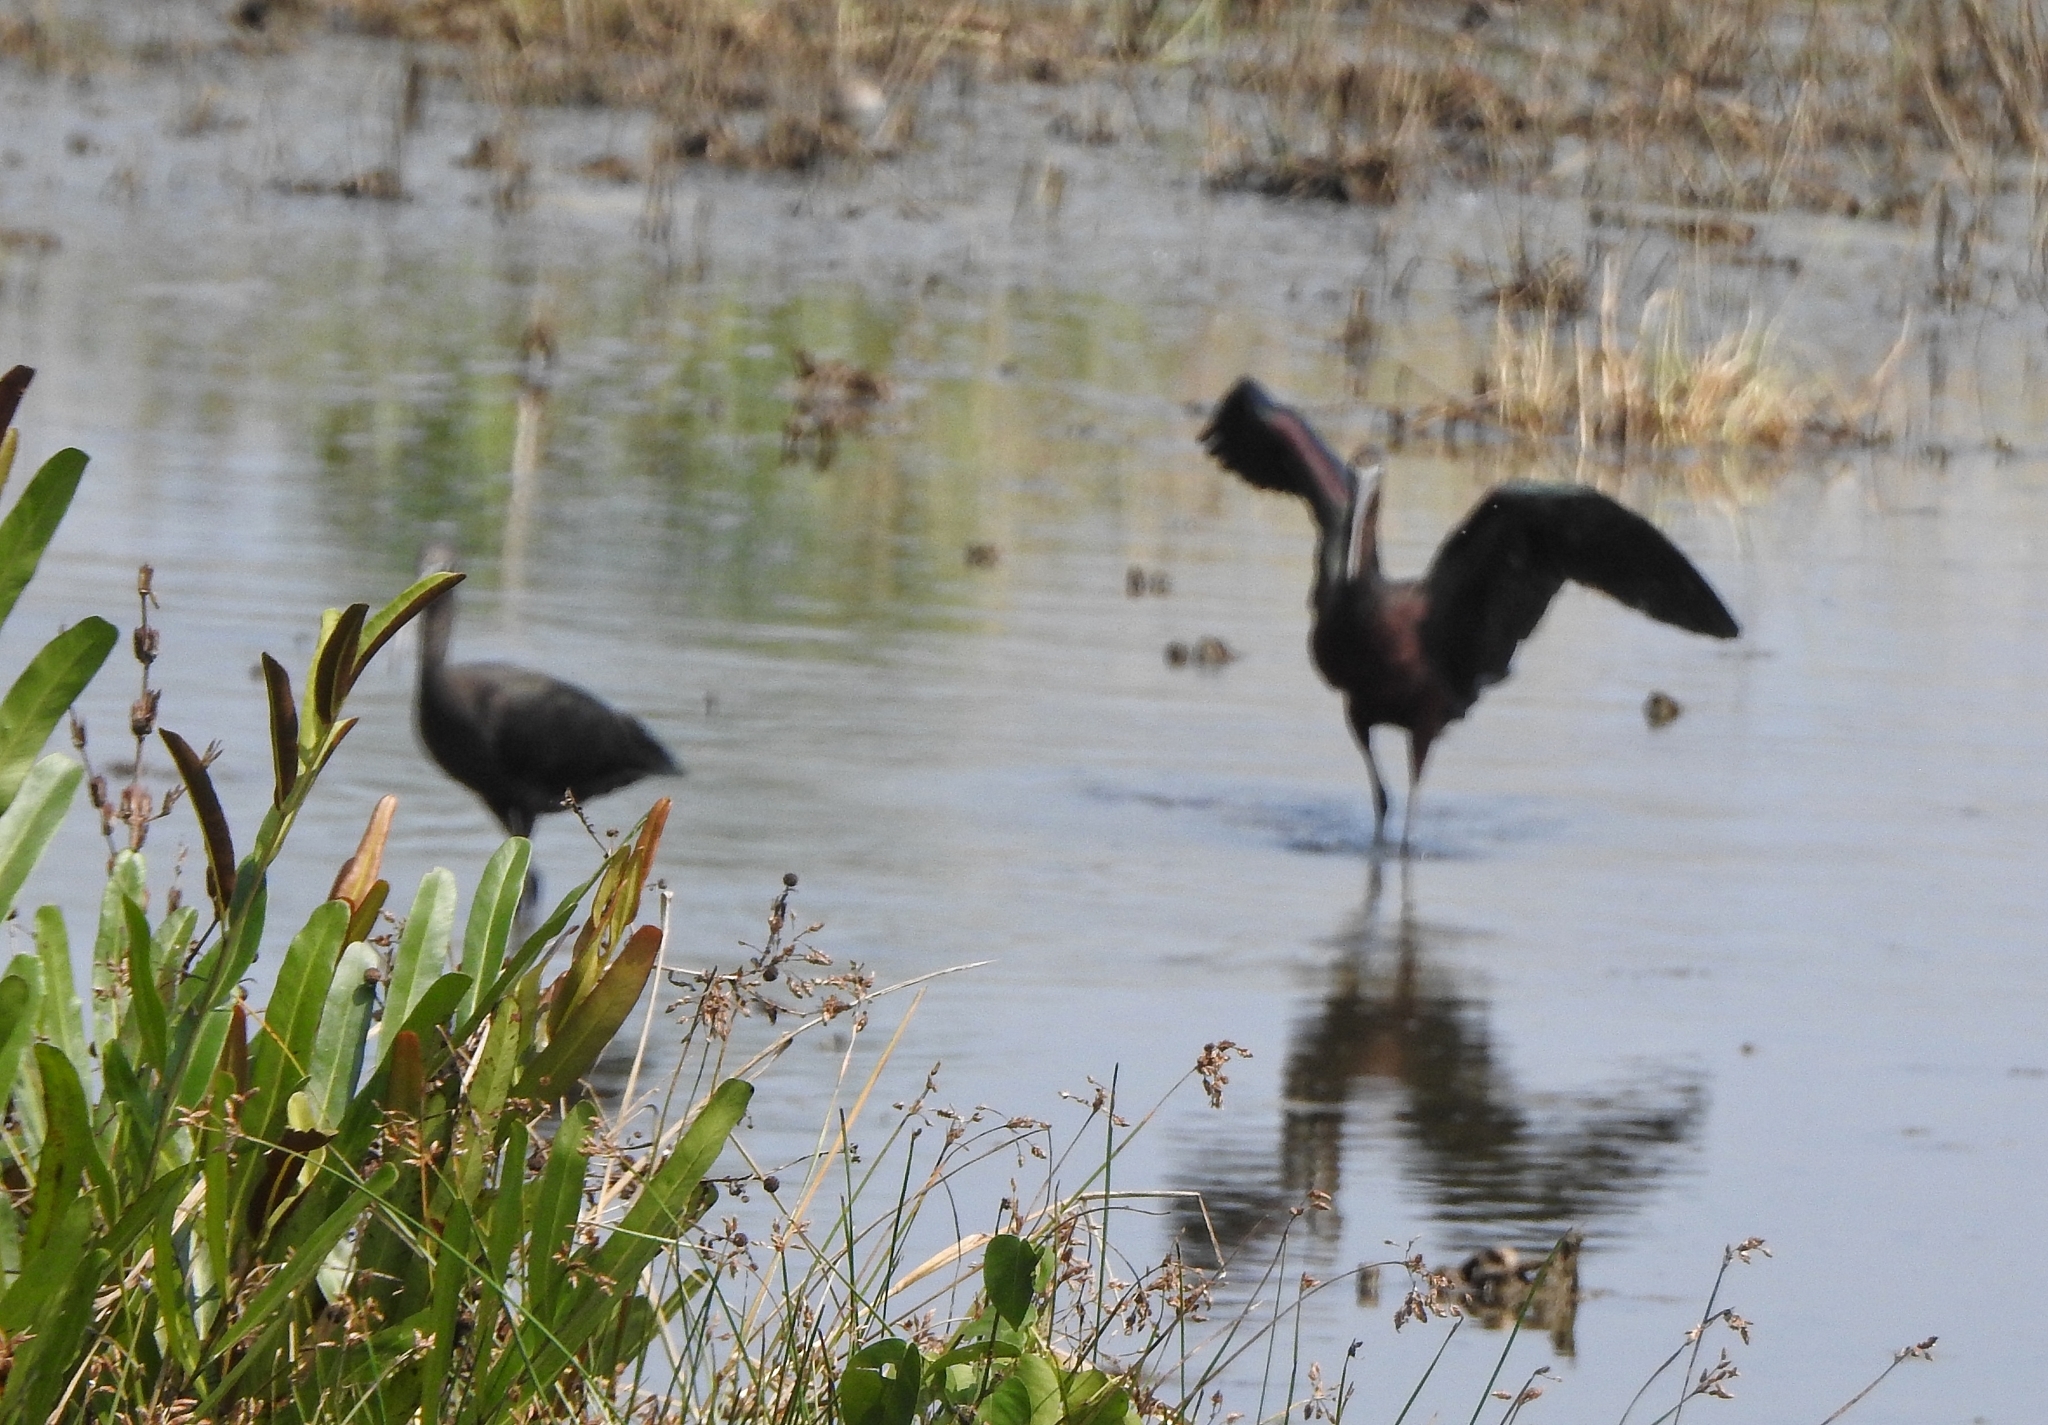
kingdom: Animalia
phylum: Chordata
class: Aves
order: Pelecaniformes
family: Threskiornithidae
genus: Plegadis
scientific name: Plegadis falcinellus
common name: Glossy ibis
